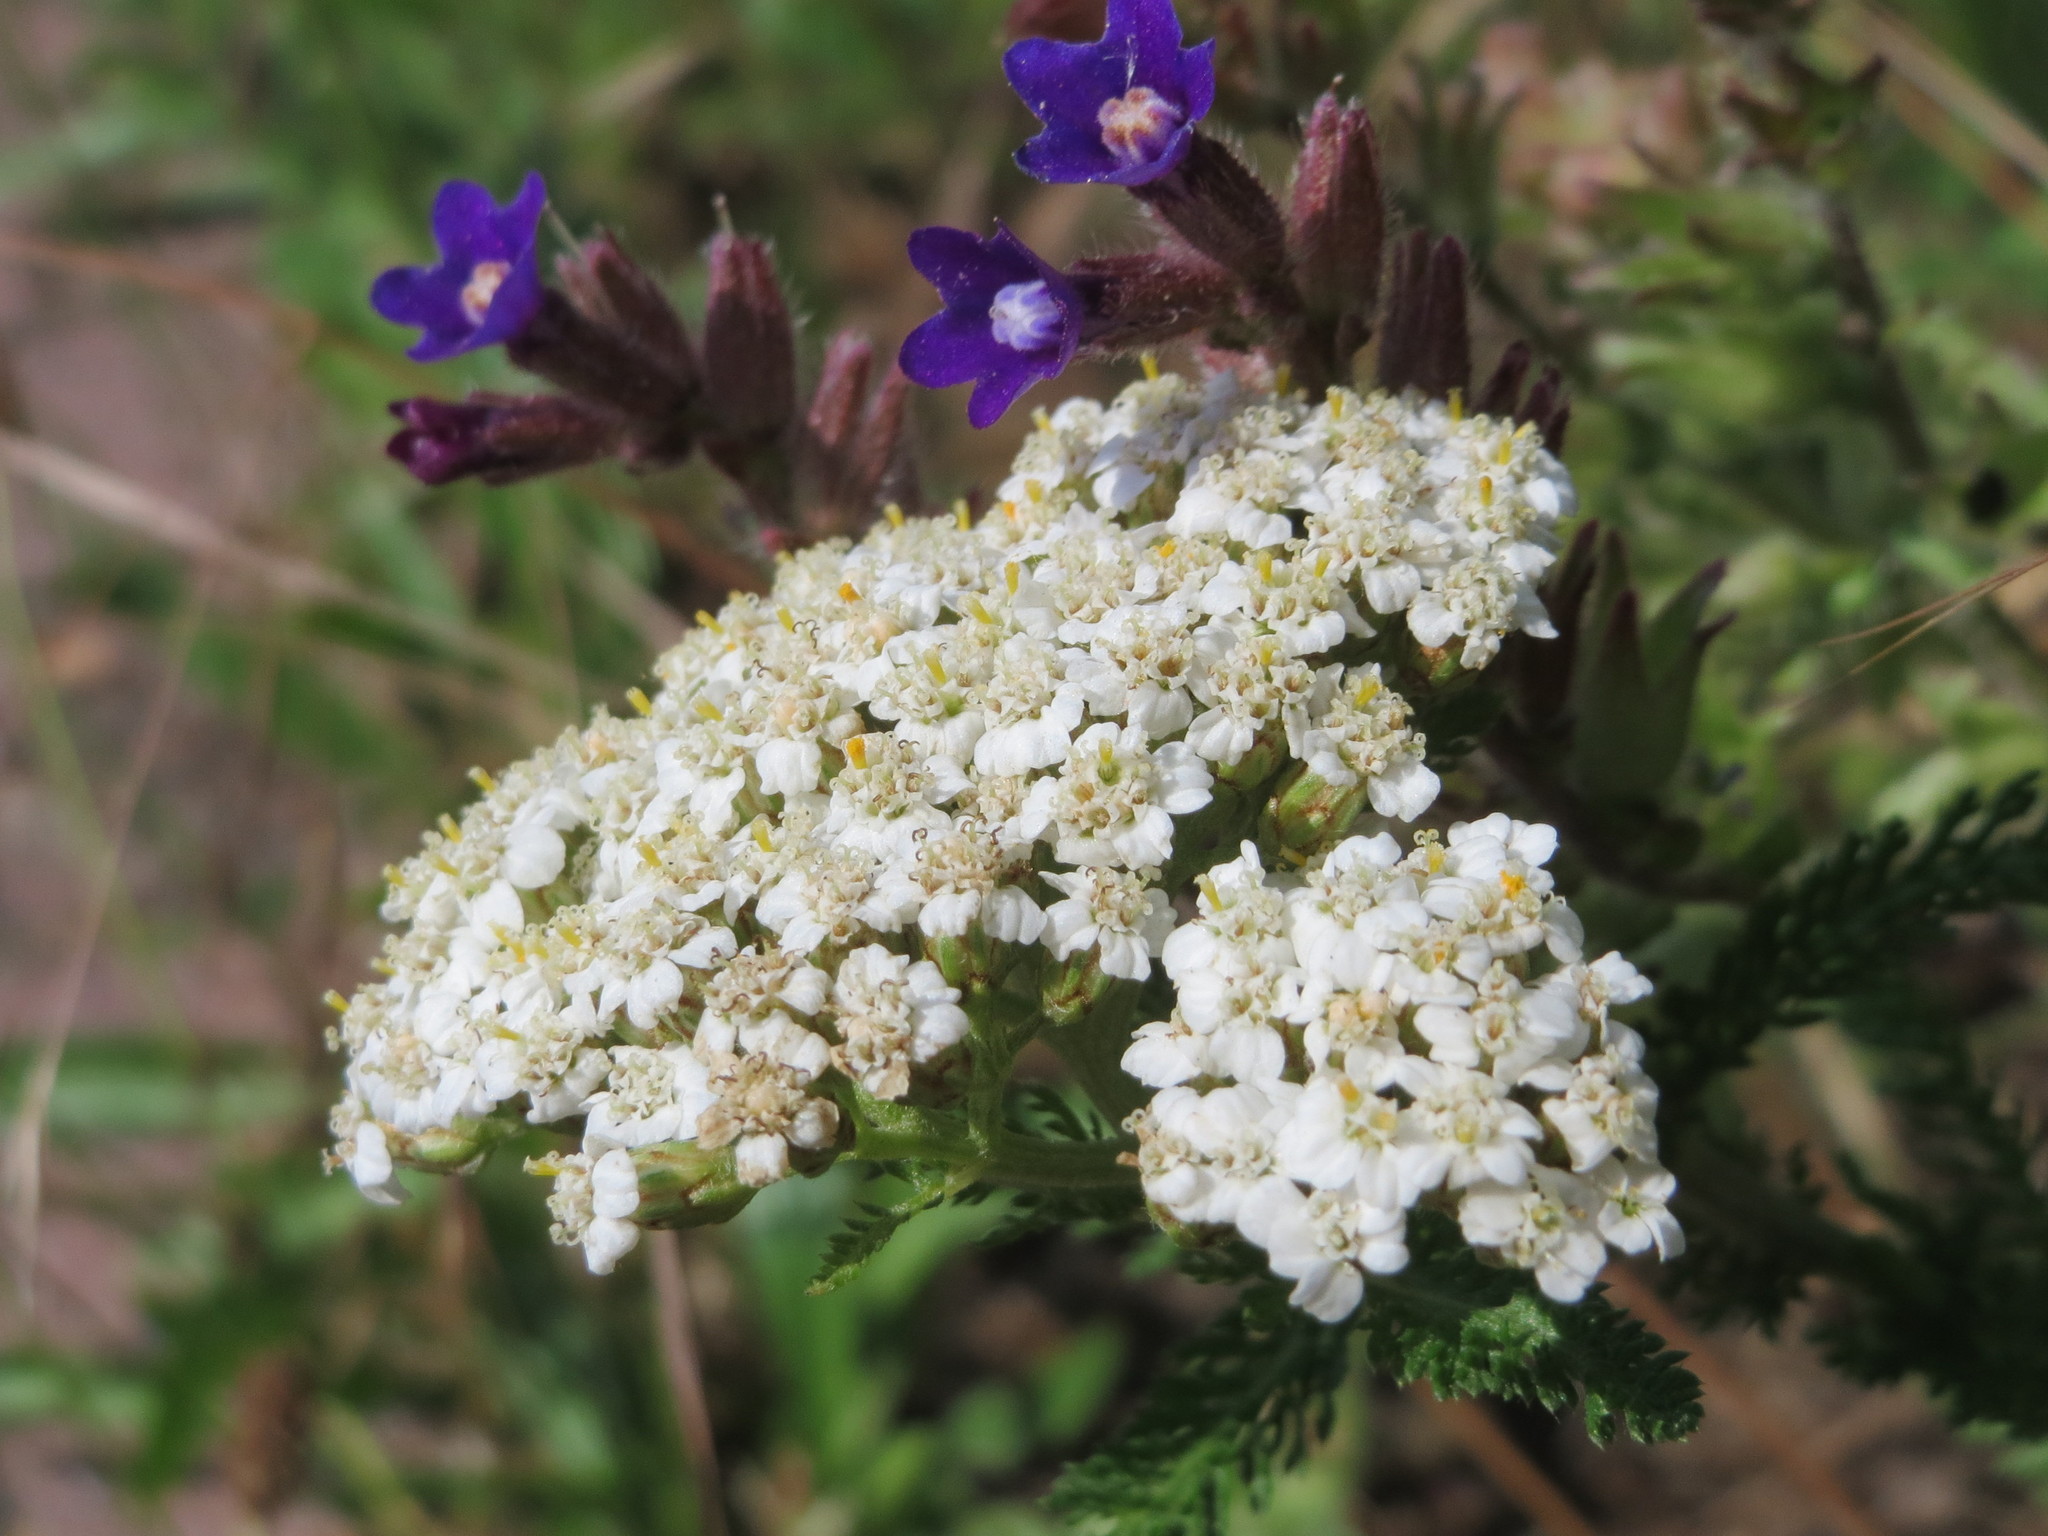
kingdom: Plantae
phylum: Tracheophyta
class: Magnoliopsida
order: Asterales
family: Asteraceae
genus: Achillea
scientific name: Achillea millefolium
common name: Yarrow
